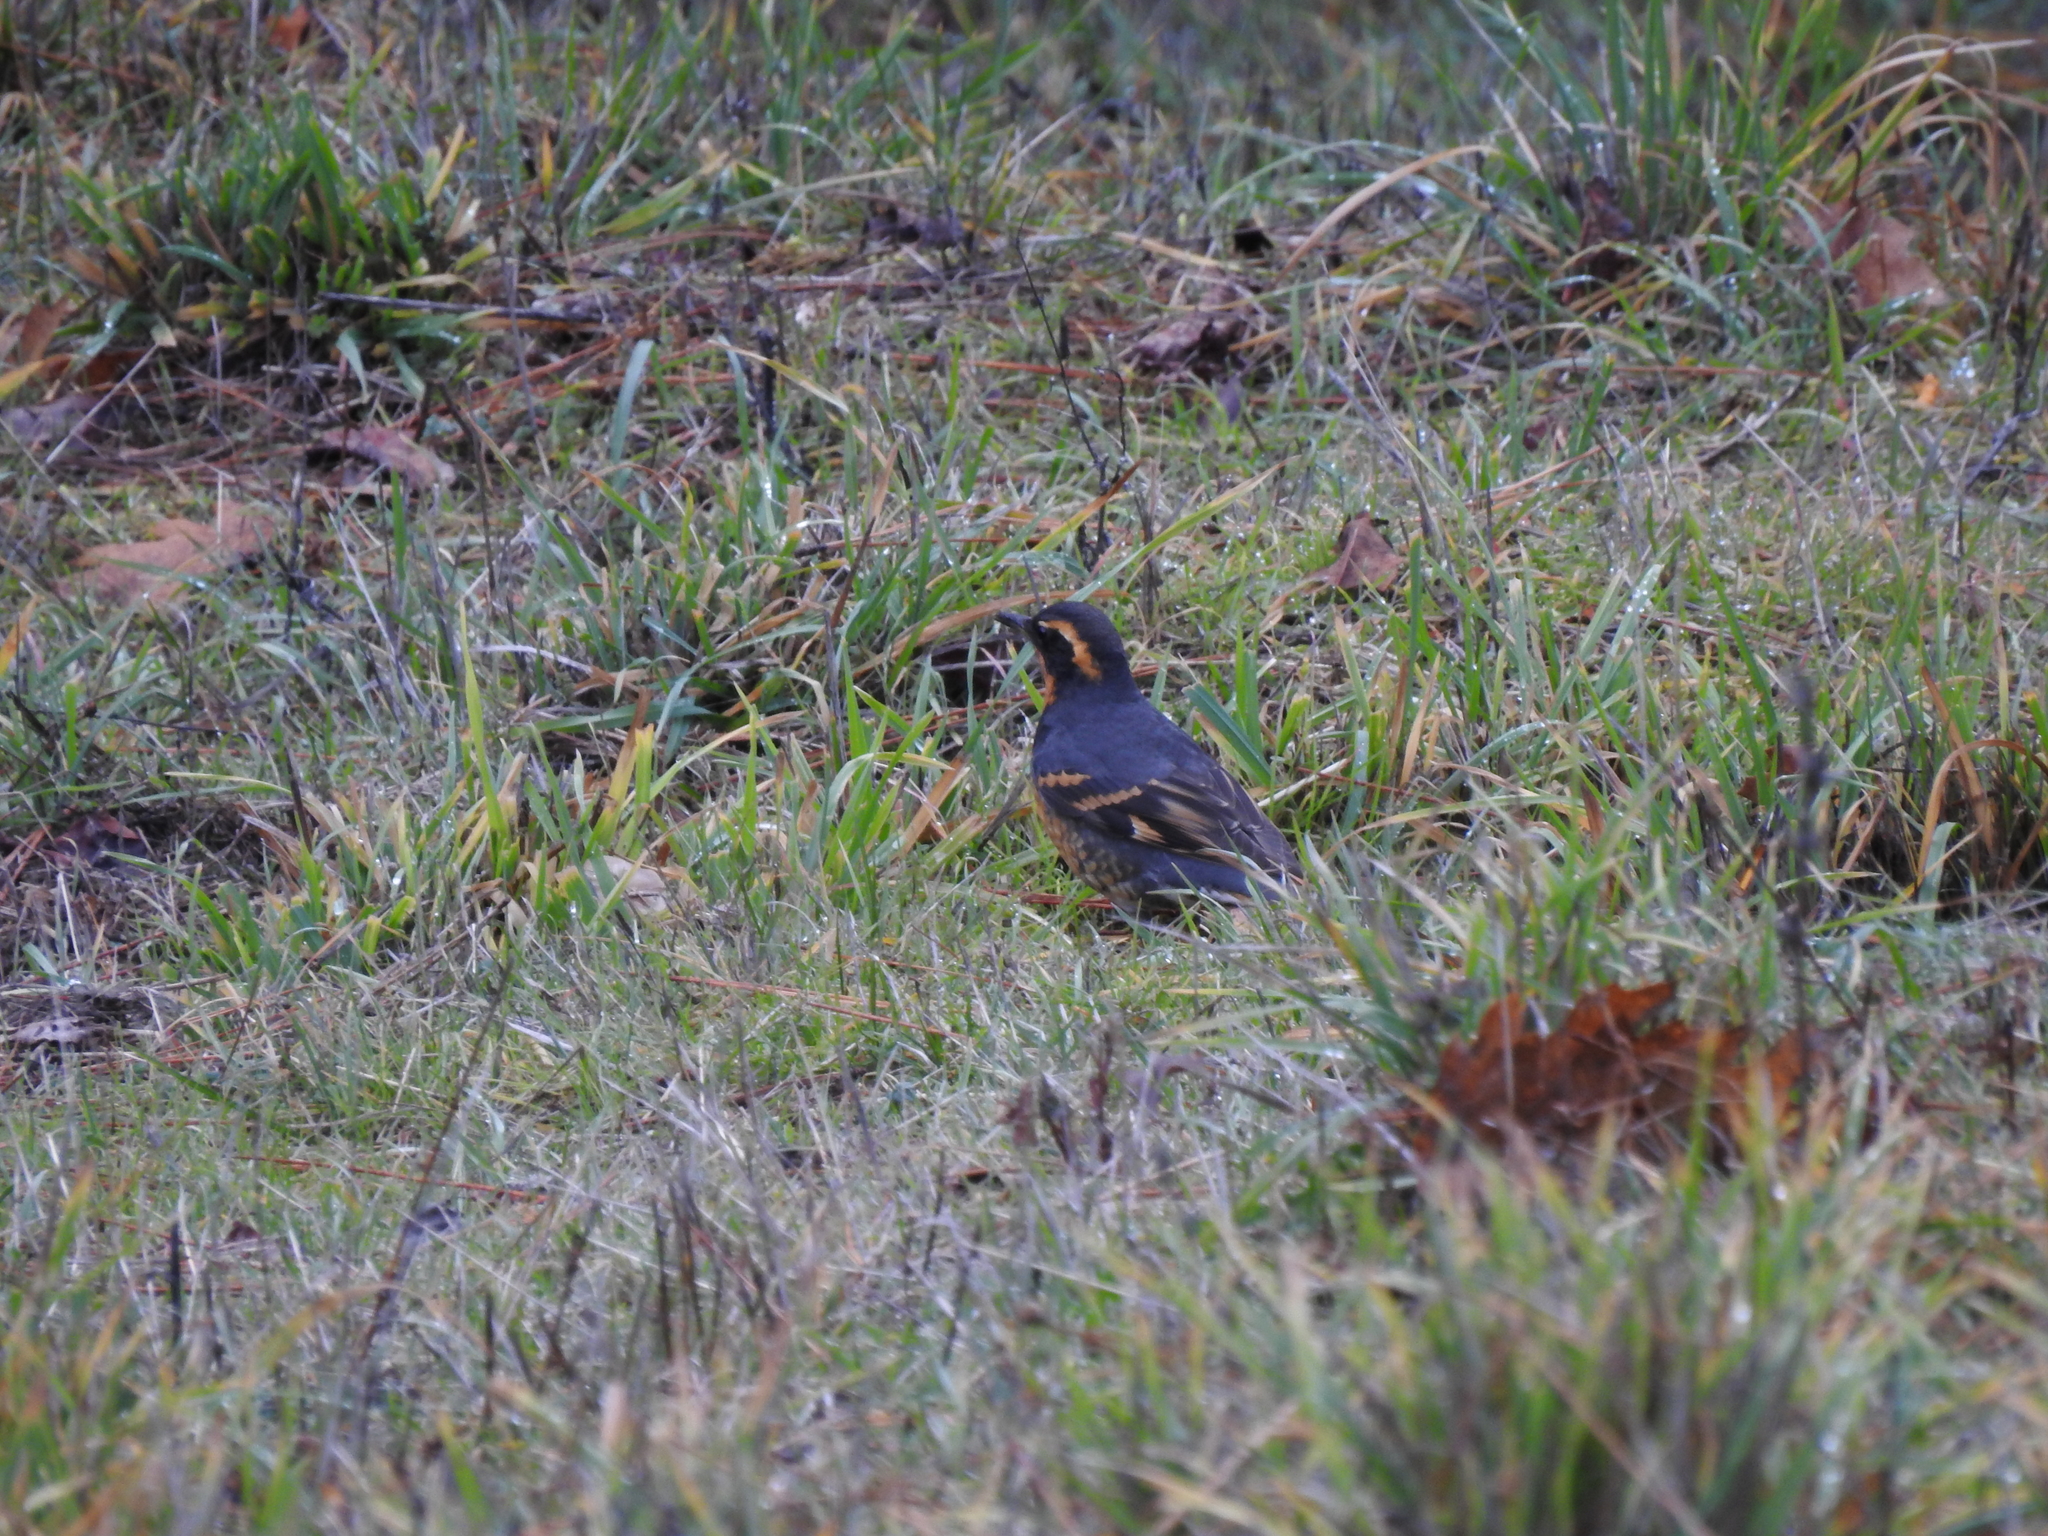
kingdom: Animalia
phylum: Chordata
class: Aves
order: Passeriformes
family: Turdidae
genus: Ixoreus
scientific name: Ixoreus naevius
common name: Varied thrush
